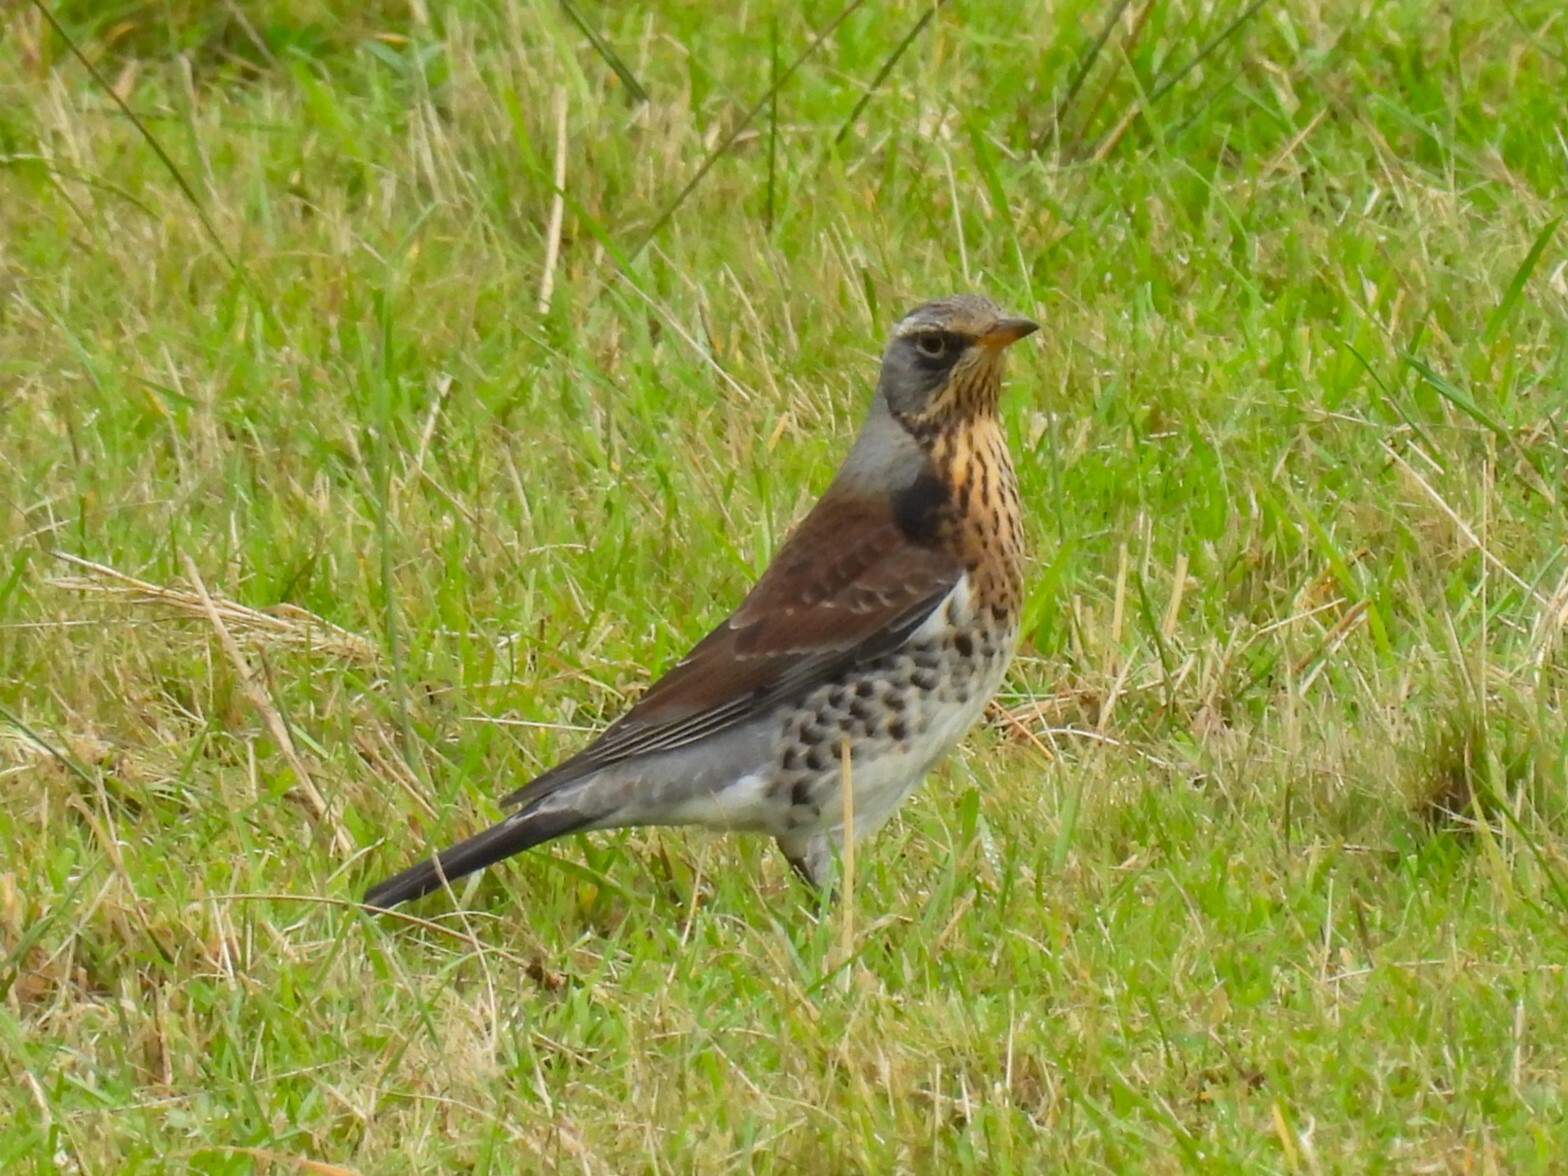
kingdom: Animalia
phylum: Chordata
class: Aves
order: Passeriformes
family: Turdidae
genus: Turdus
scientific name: Turdus pilaris
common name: Fieldfare
